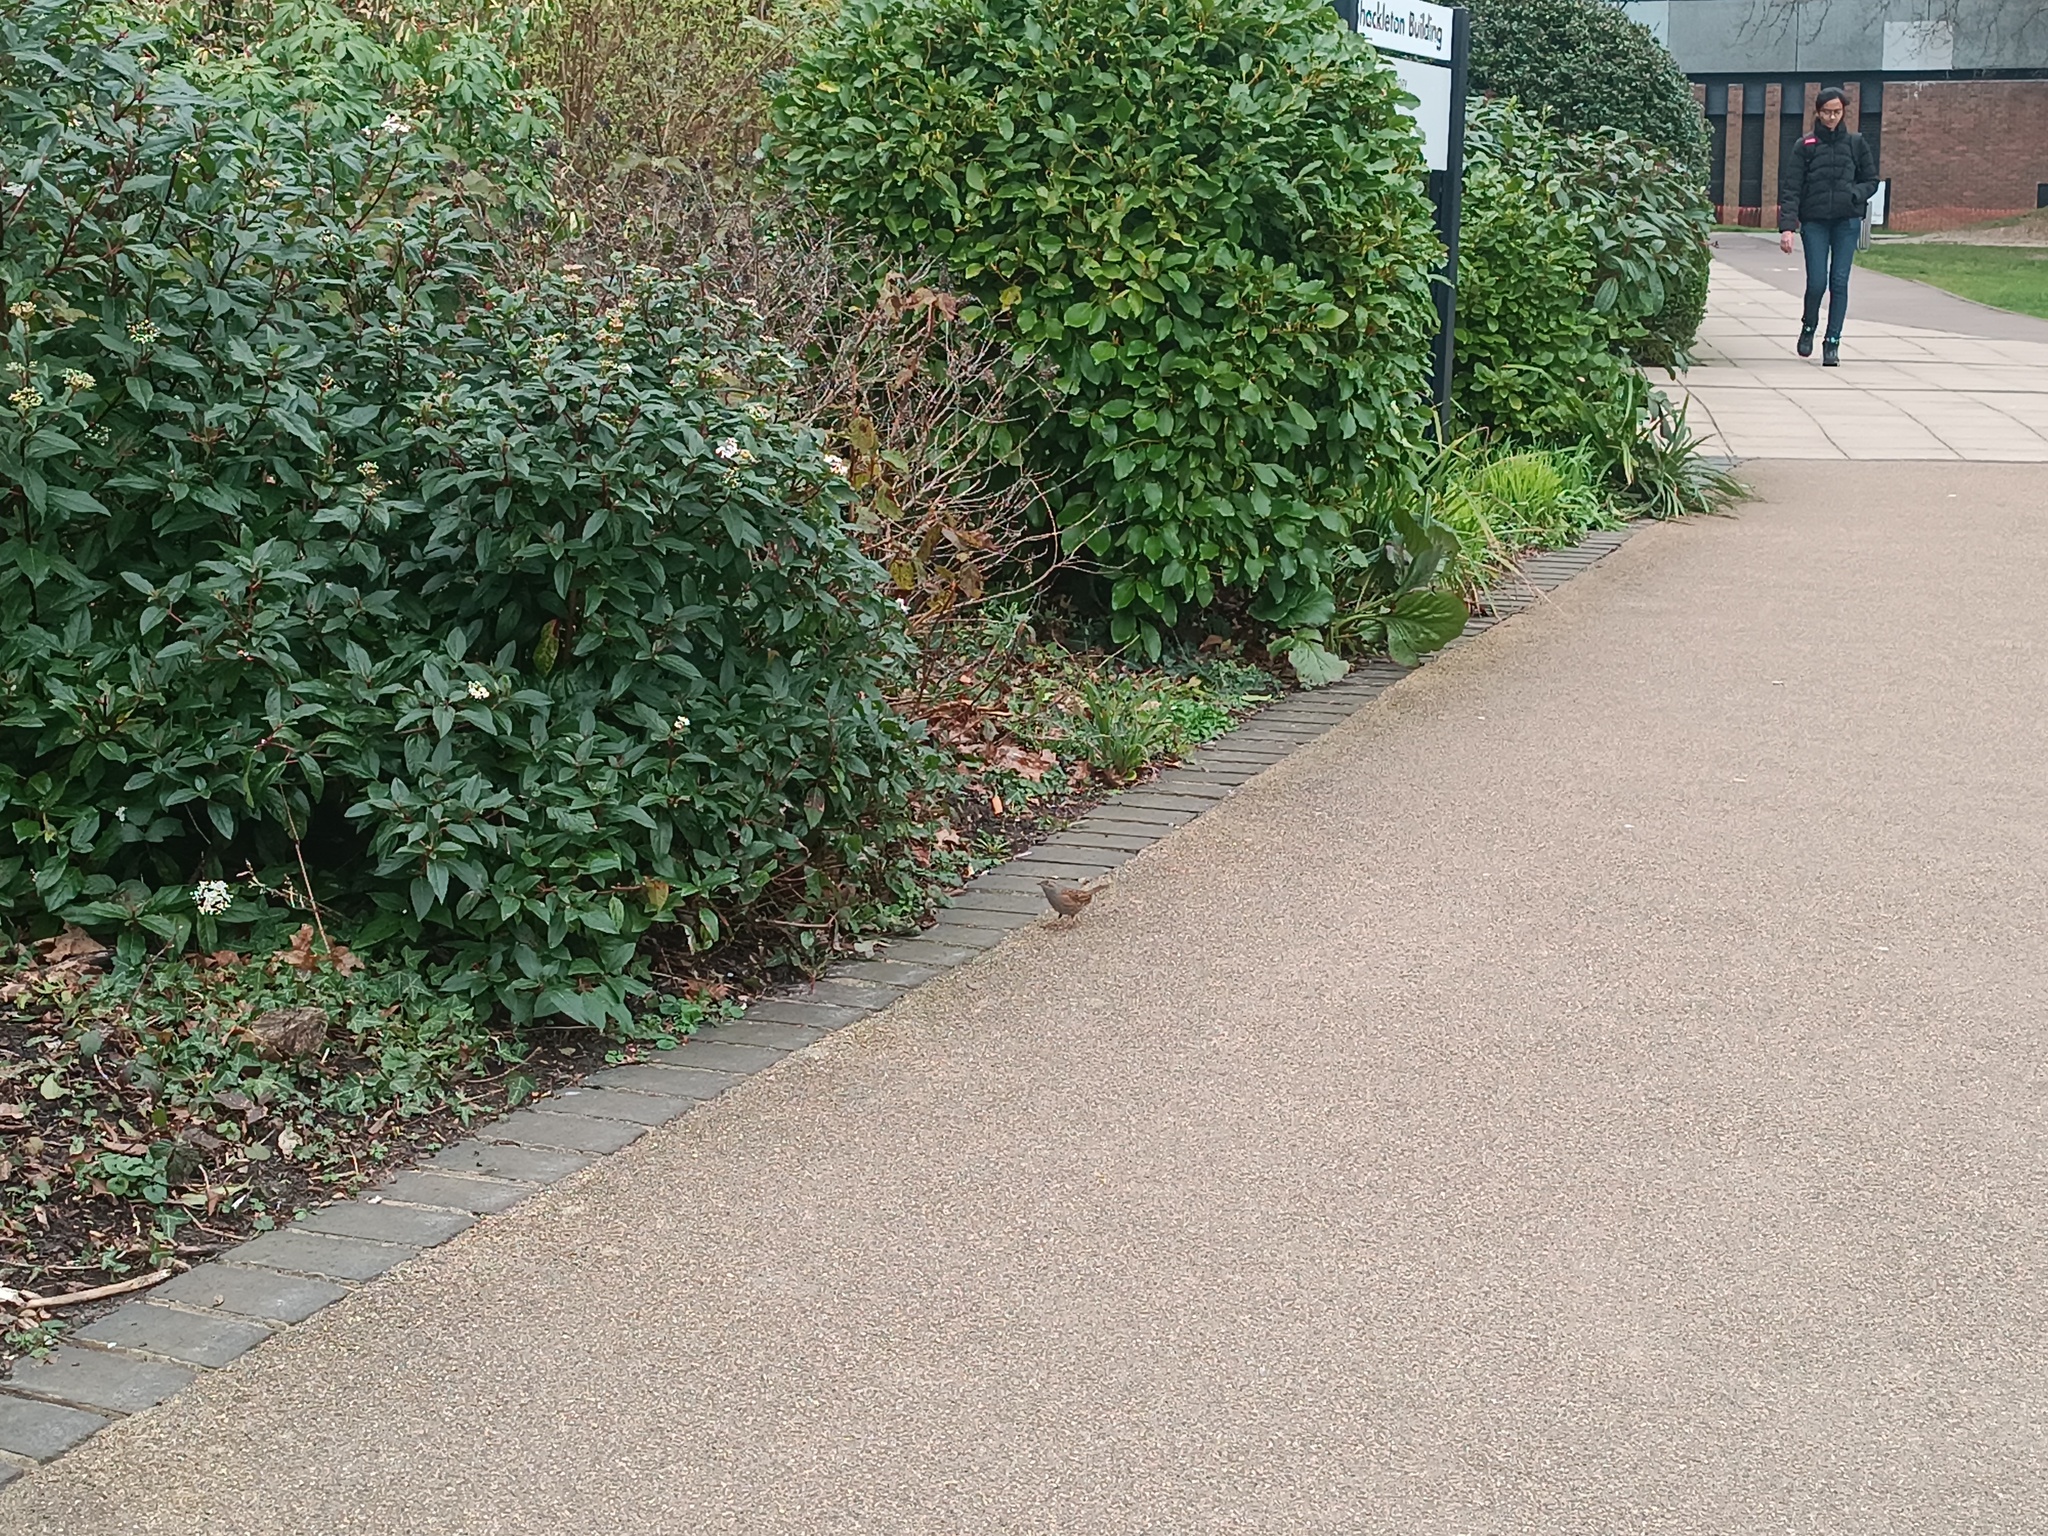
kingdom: Animalia
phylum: Chordata
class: Aves
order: Passeriformes
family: Prunellidae
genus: Prunella
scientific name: Prunella modularis
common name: Dunnock
